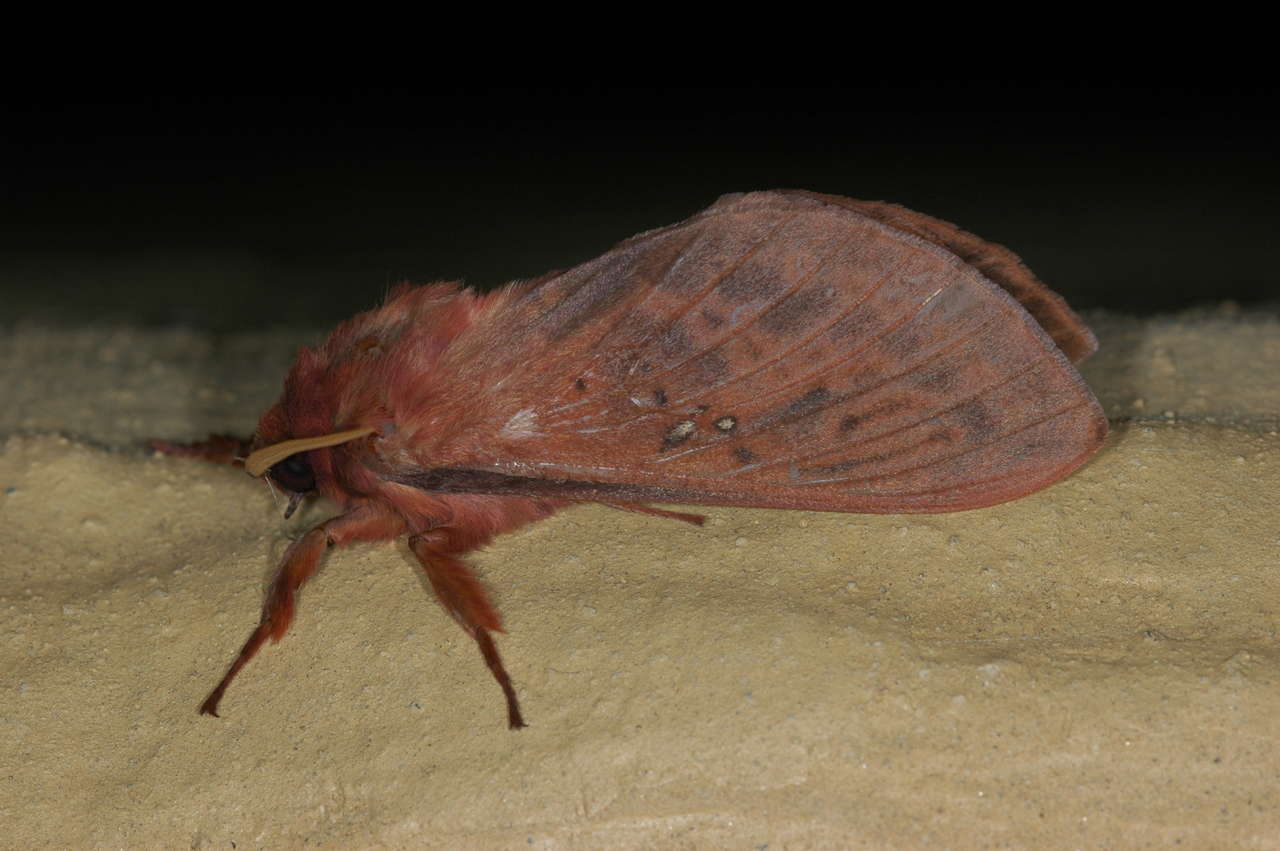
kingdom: Animalia
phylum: Arthropoda
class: Insecta
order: Lepidoptera
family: Hepialidae
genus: Oxycanus
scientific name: Oxycanus rufescens
